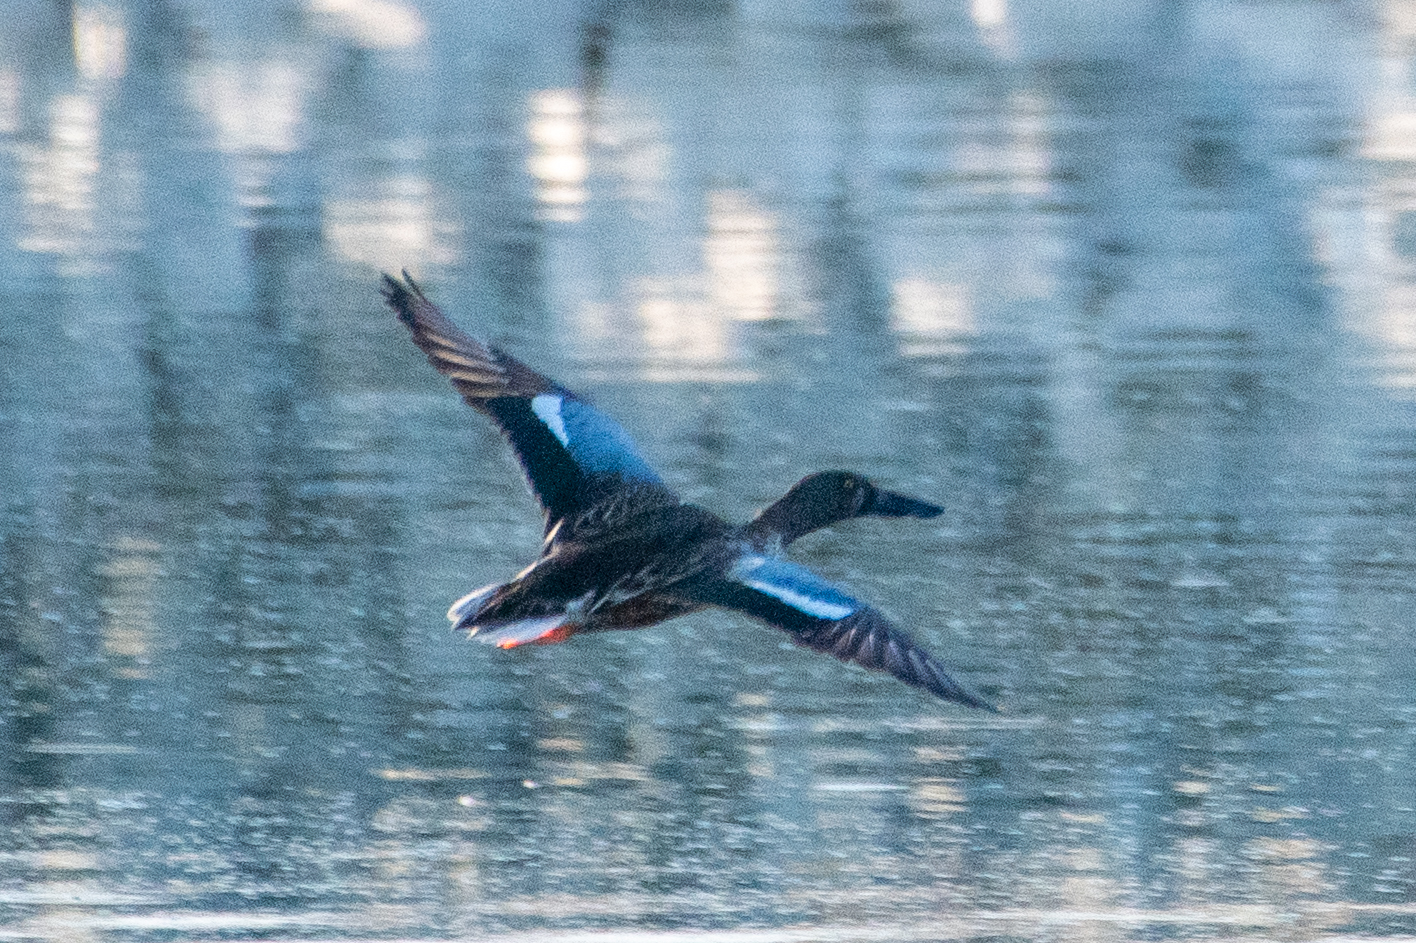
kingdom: Animalia
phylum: Chordata
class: Aves
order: Anseriformes
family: Anatidae
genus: Spatula
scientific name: Spatula clypeata
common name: Northern shoveler
